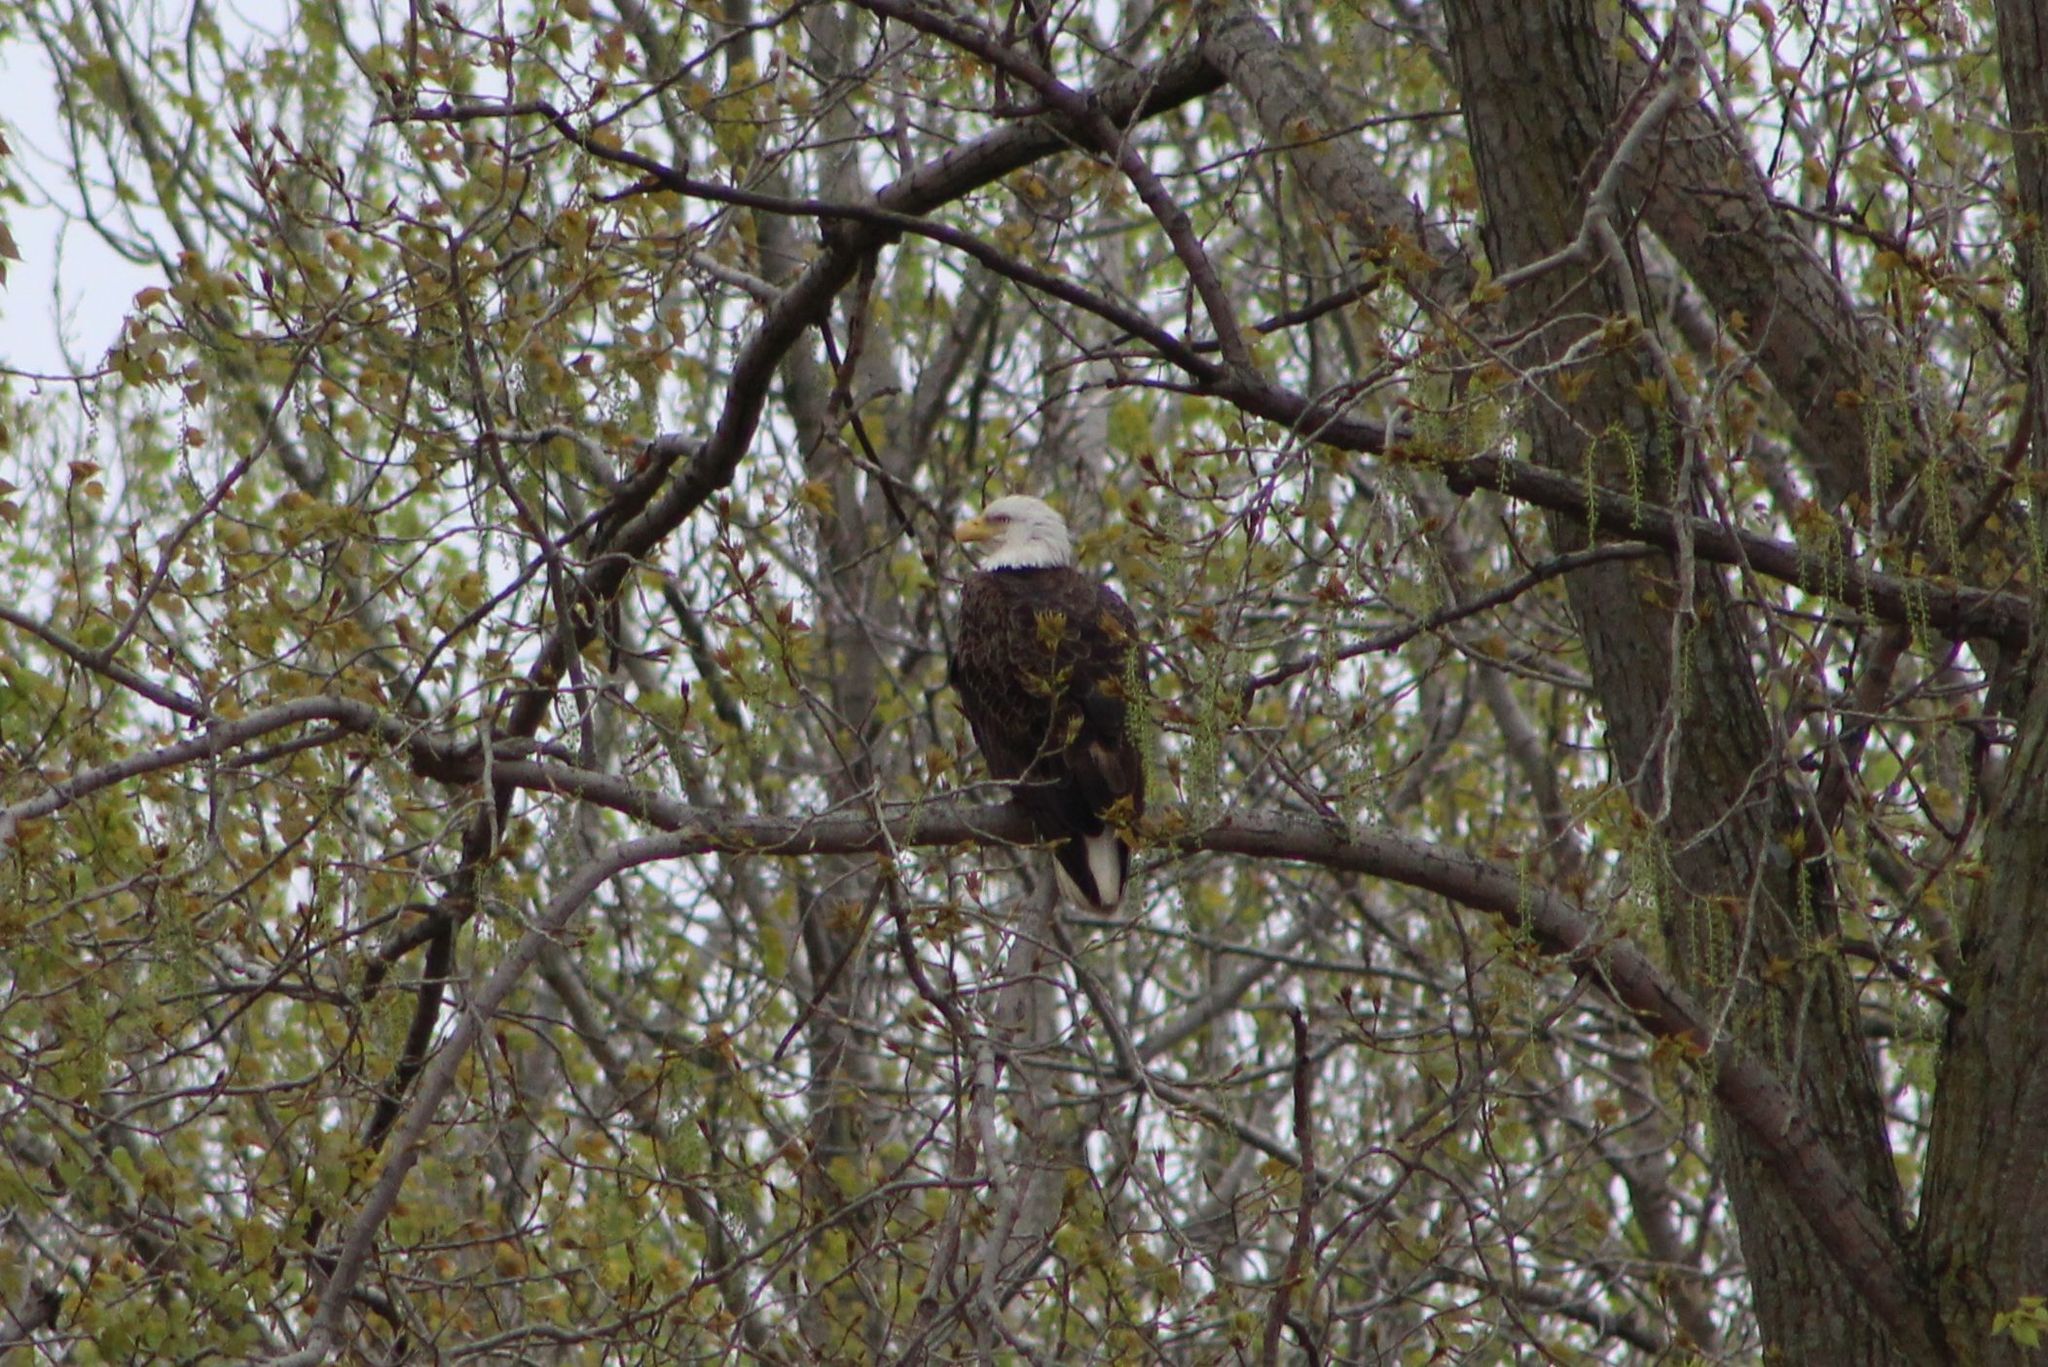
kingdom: Animalia
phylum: Chordata
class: Aves
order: Accipitriformes
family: Accipitridae
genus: Haliaeetus
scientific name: Haliaeetus leucocephalus
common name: Bald eagle
